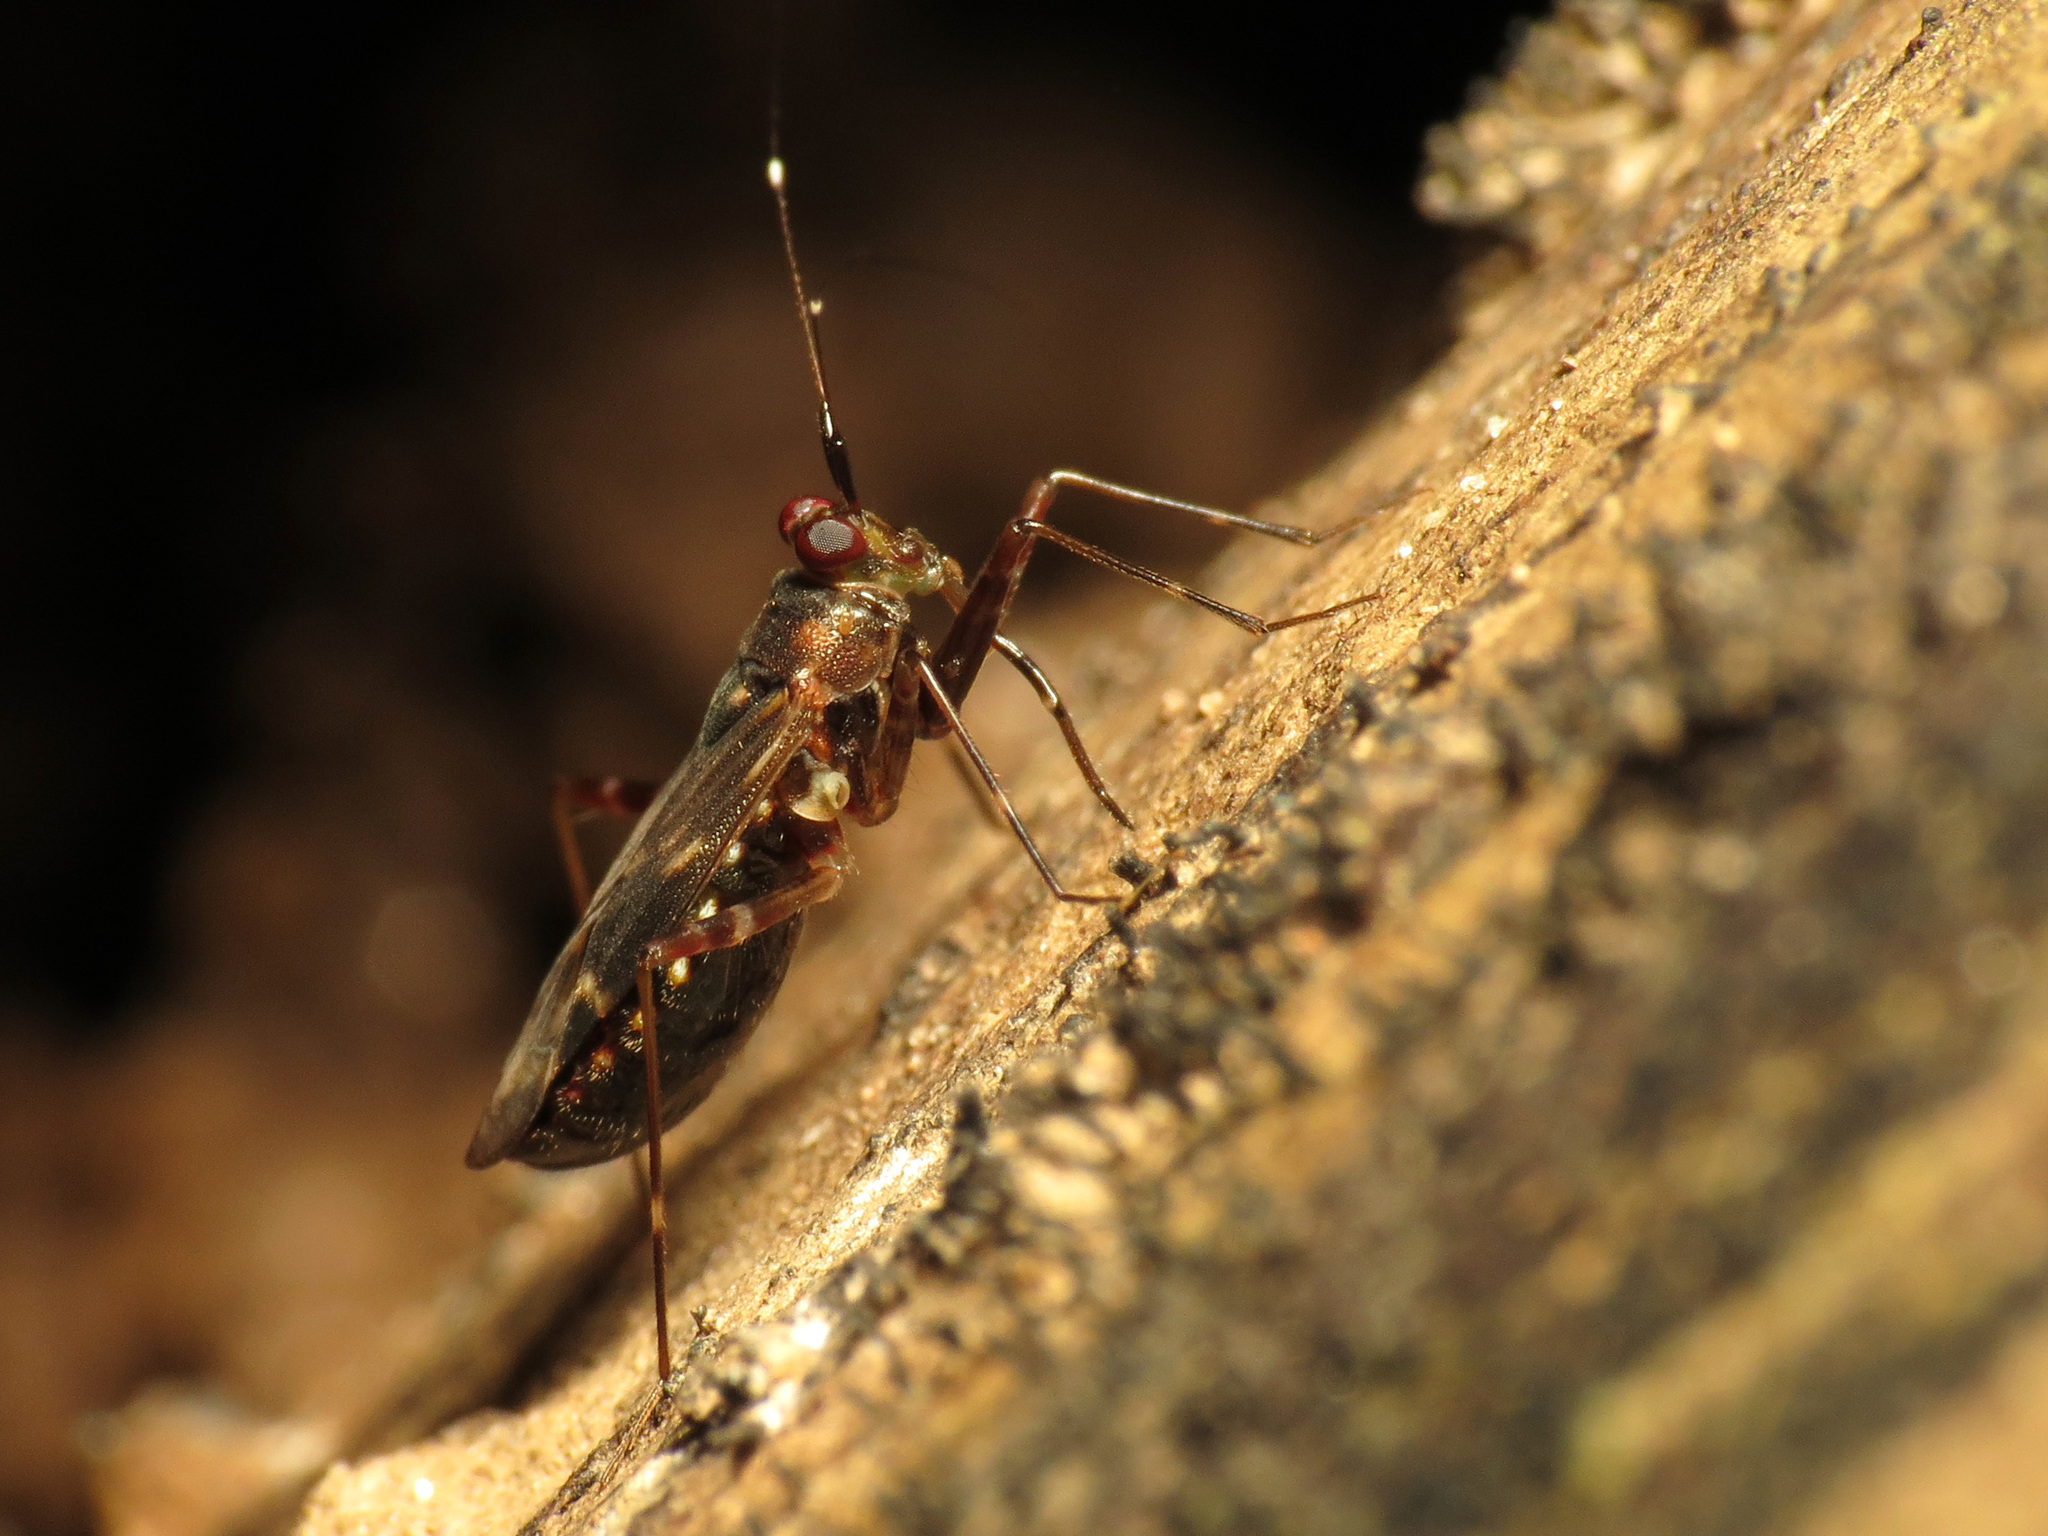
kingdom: Animalia
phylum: Arthropoda
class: Insecta
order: Hemiptera
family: Miridae
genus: Cylapus
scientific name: Cylapus tenuicornis
